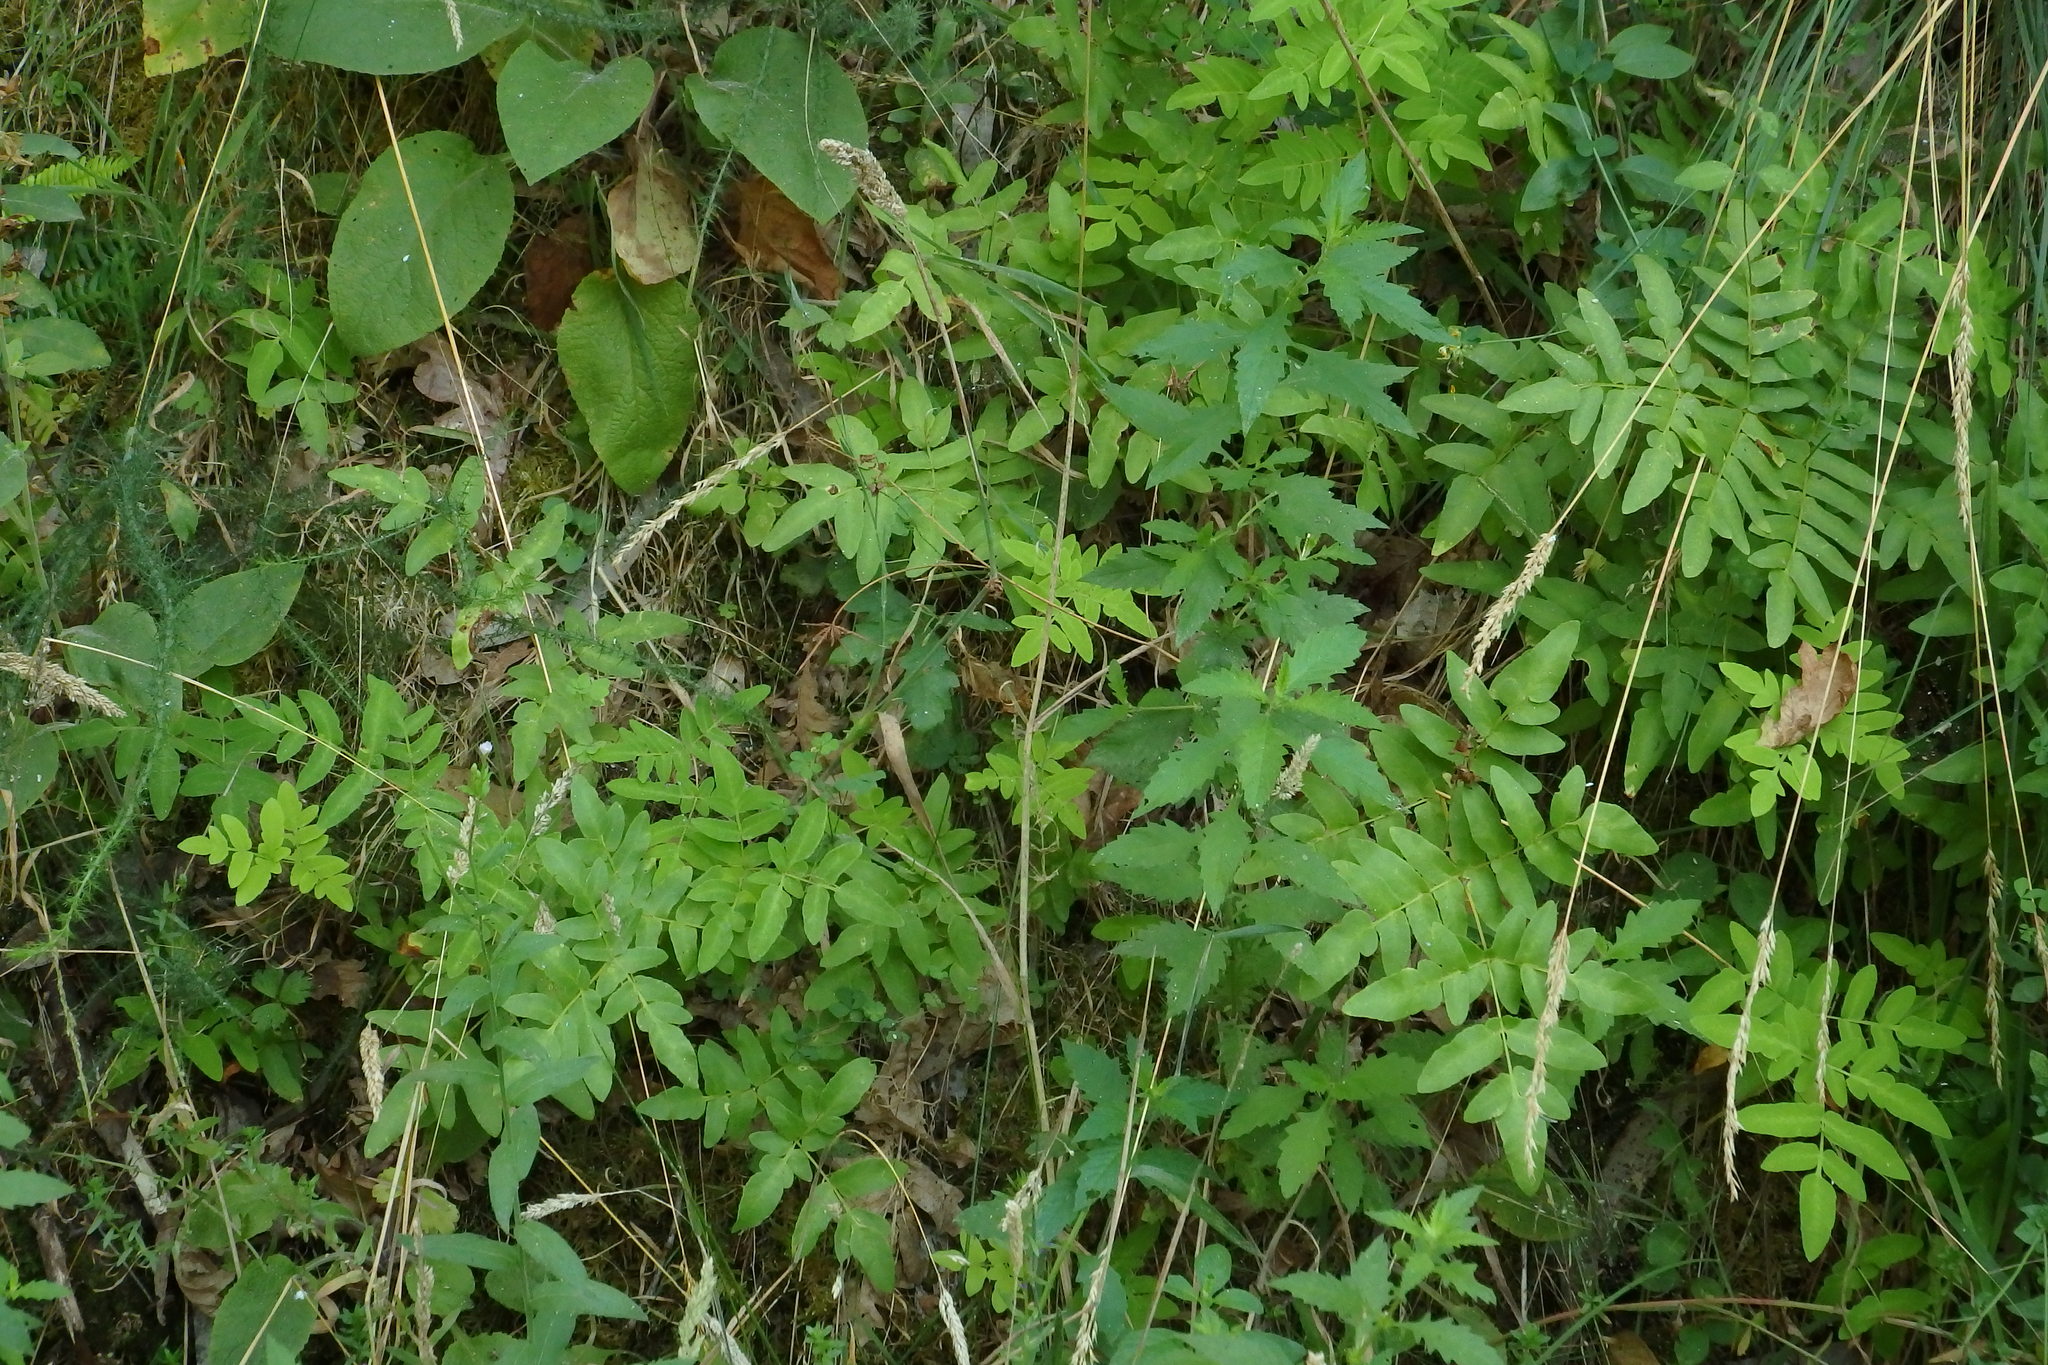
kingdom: Plantae
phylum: Tracheophyta
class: Polypodiopsida
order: Osmundales
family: Osmundaceae
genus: Osmunda
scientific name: Osmunda regalis
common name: Royal fern
